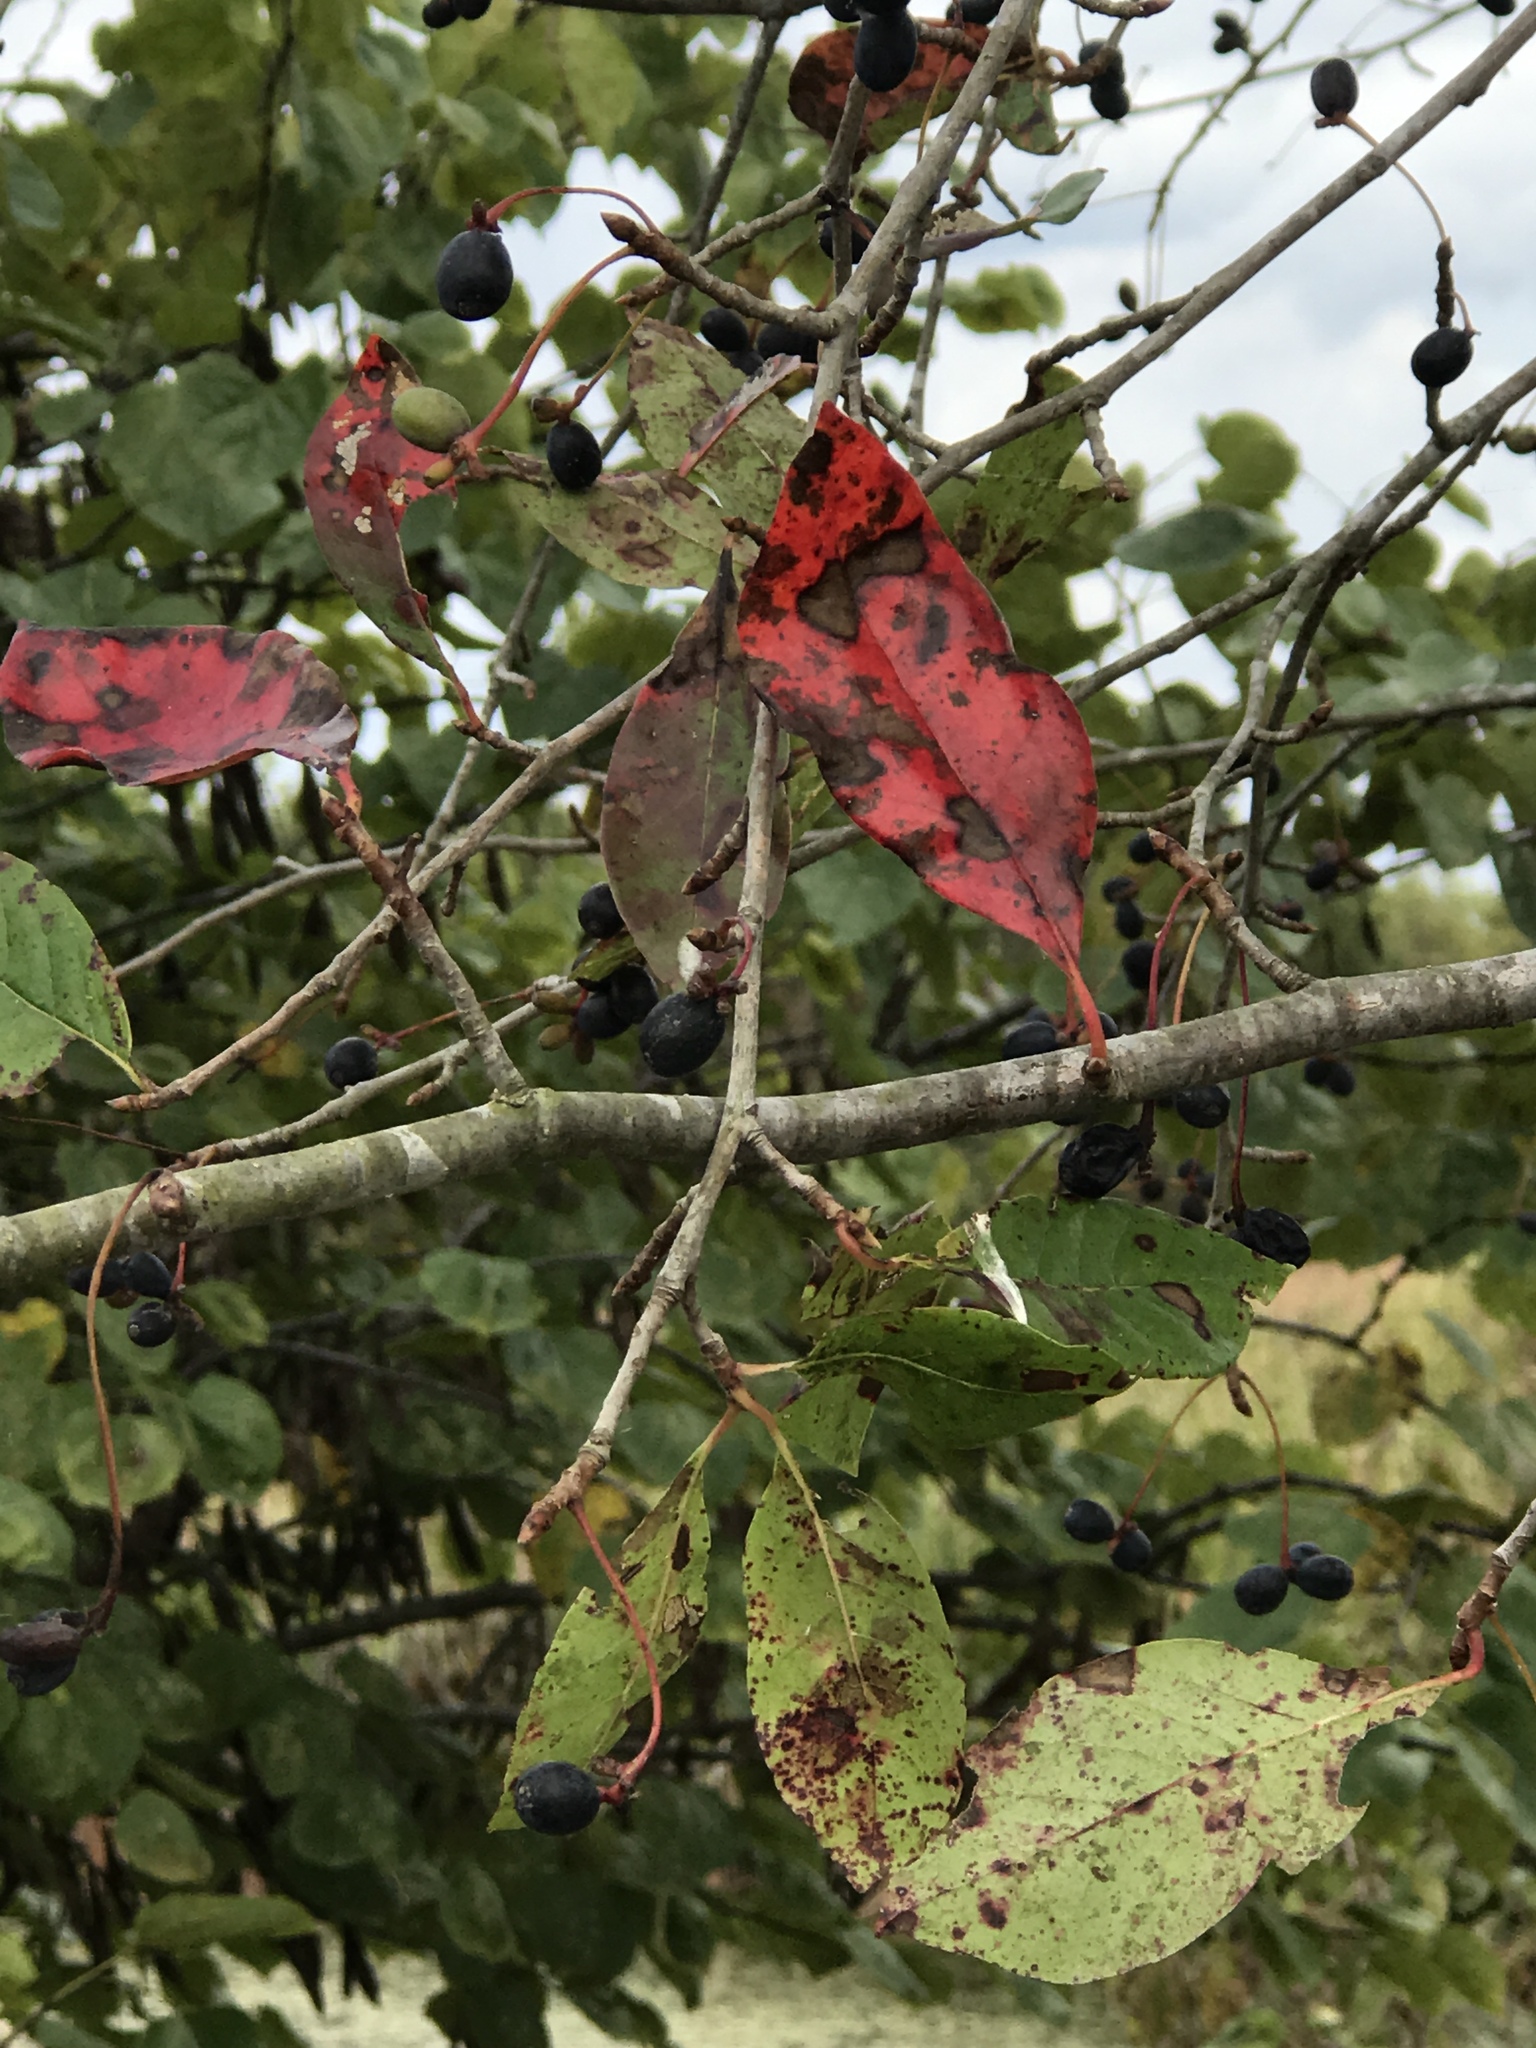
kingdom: Plantae
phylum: Tracheophyta
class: Magnoliopsida
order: Cornales
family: Nyssaceae
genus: Nyssa
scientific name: Nyssa sylvatica
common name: Black tupelo
